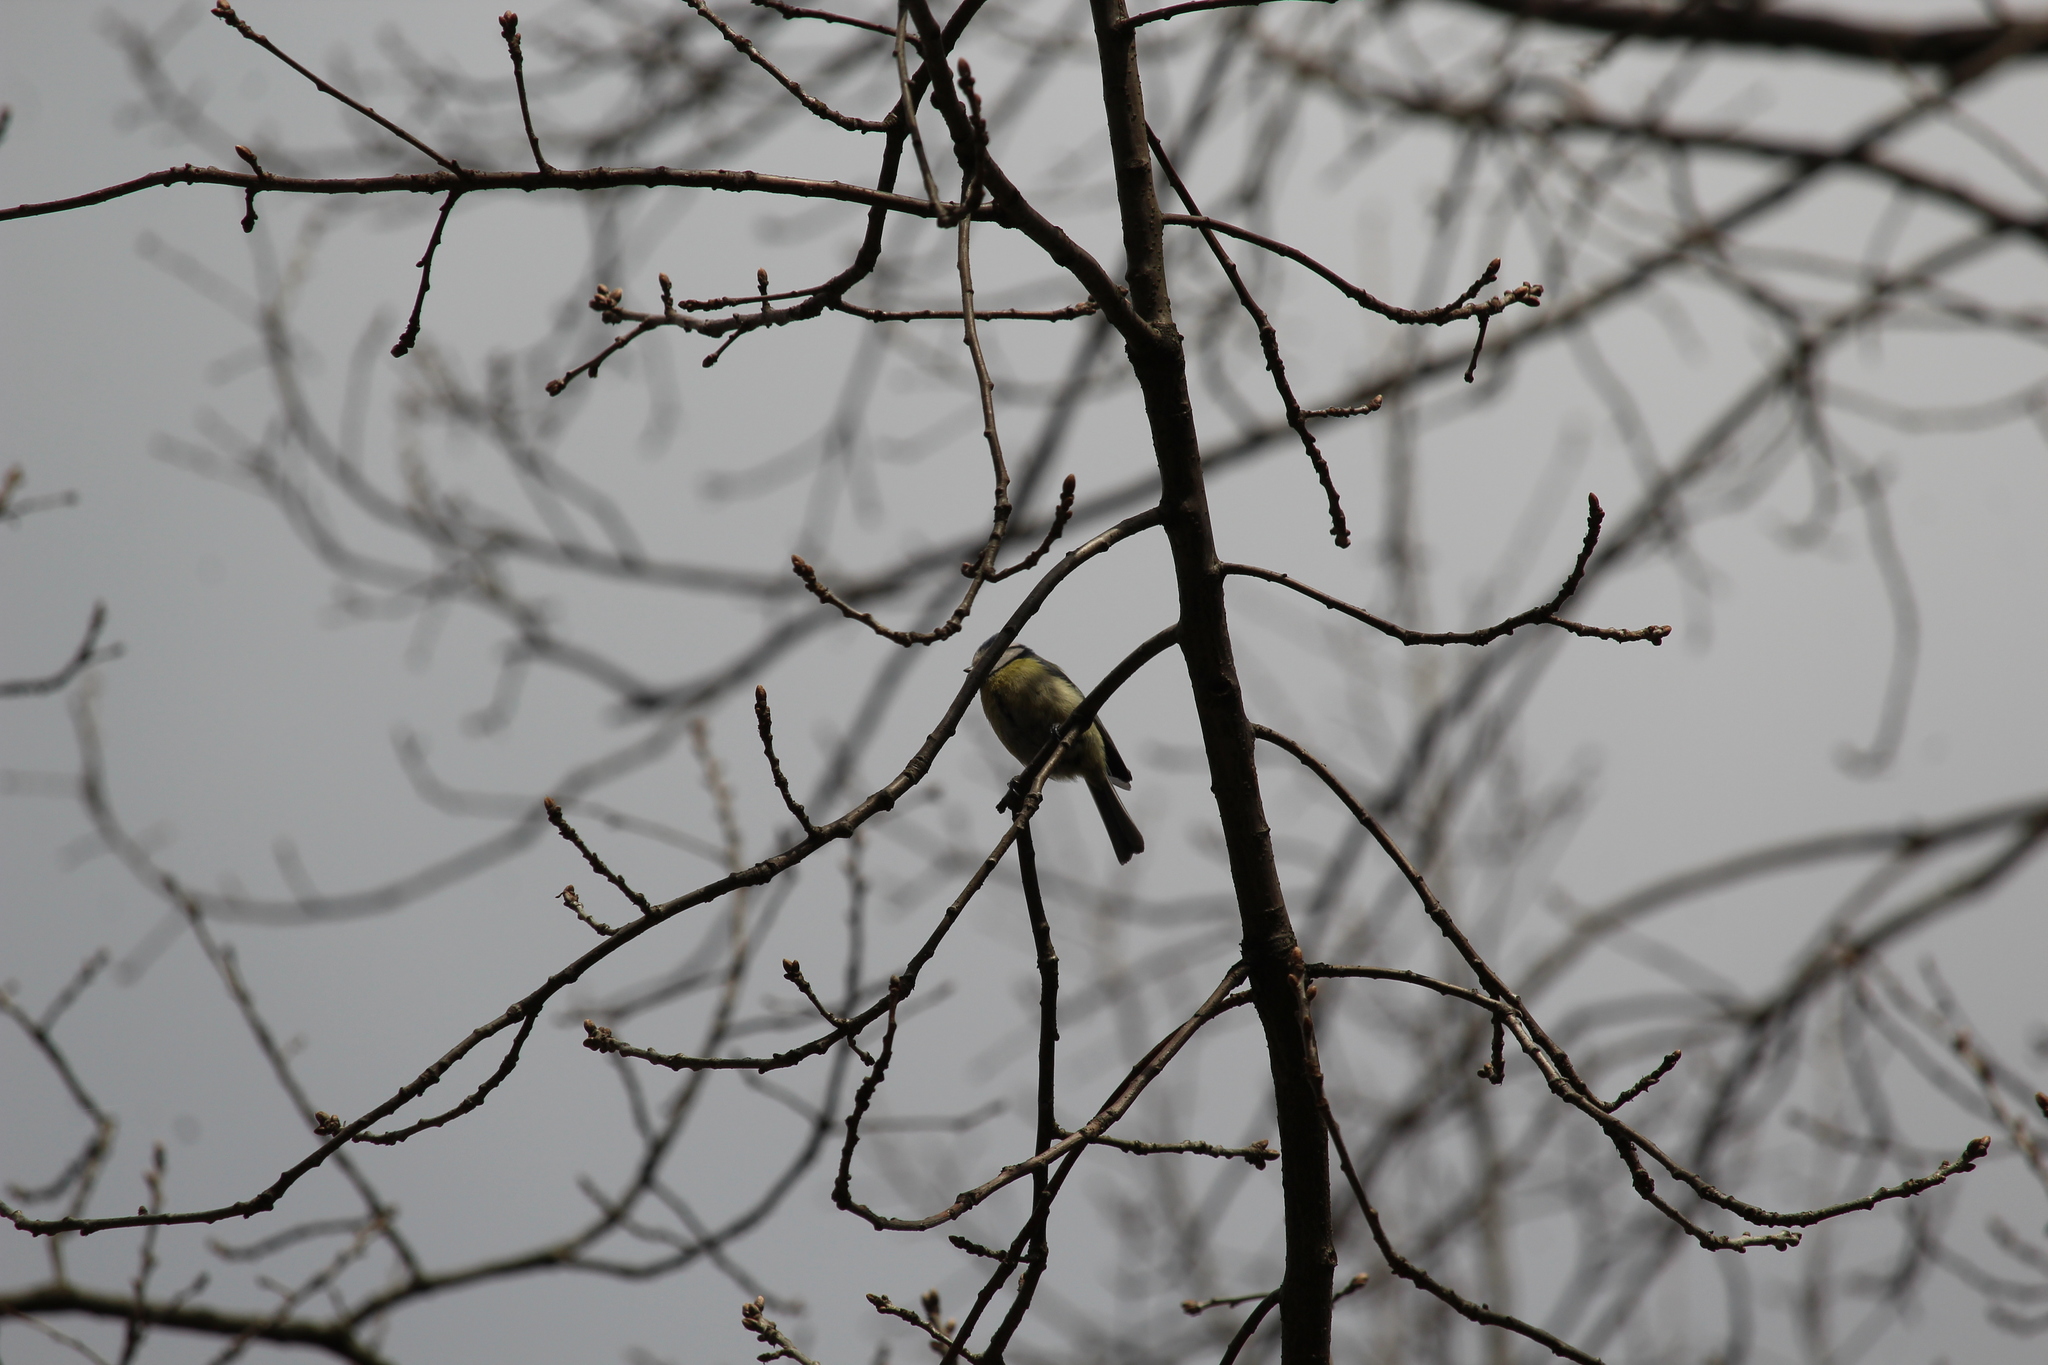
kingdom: Animalia
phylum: Chordata
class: Aves
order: Passeriformes
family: Paridae
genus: Cyanistes
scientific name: Cyanistes caeruleus
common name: Eurasian blue tit
